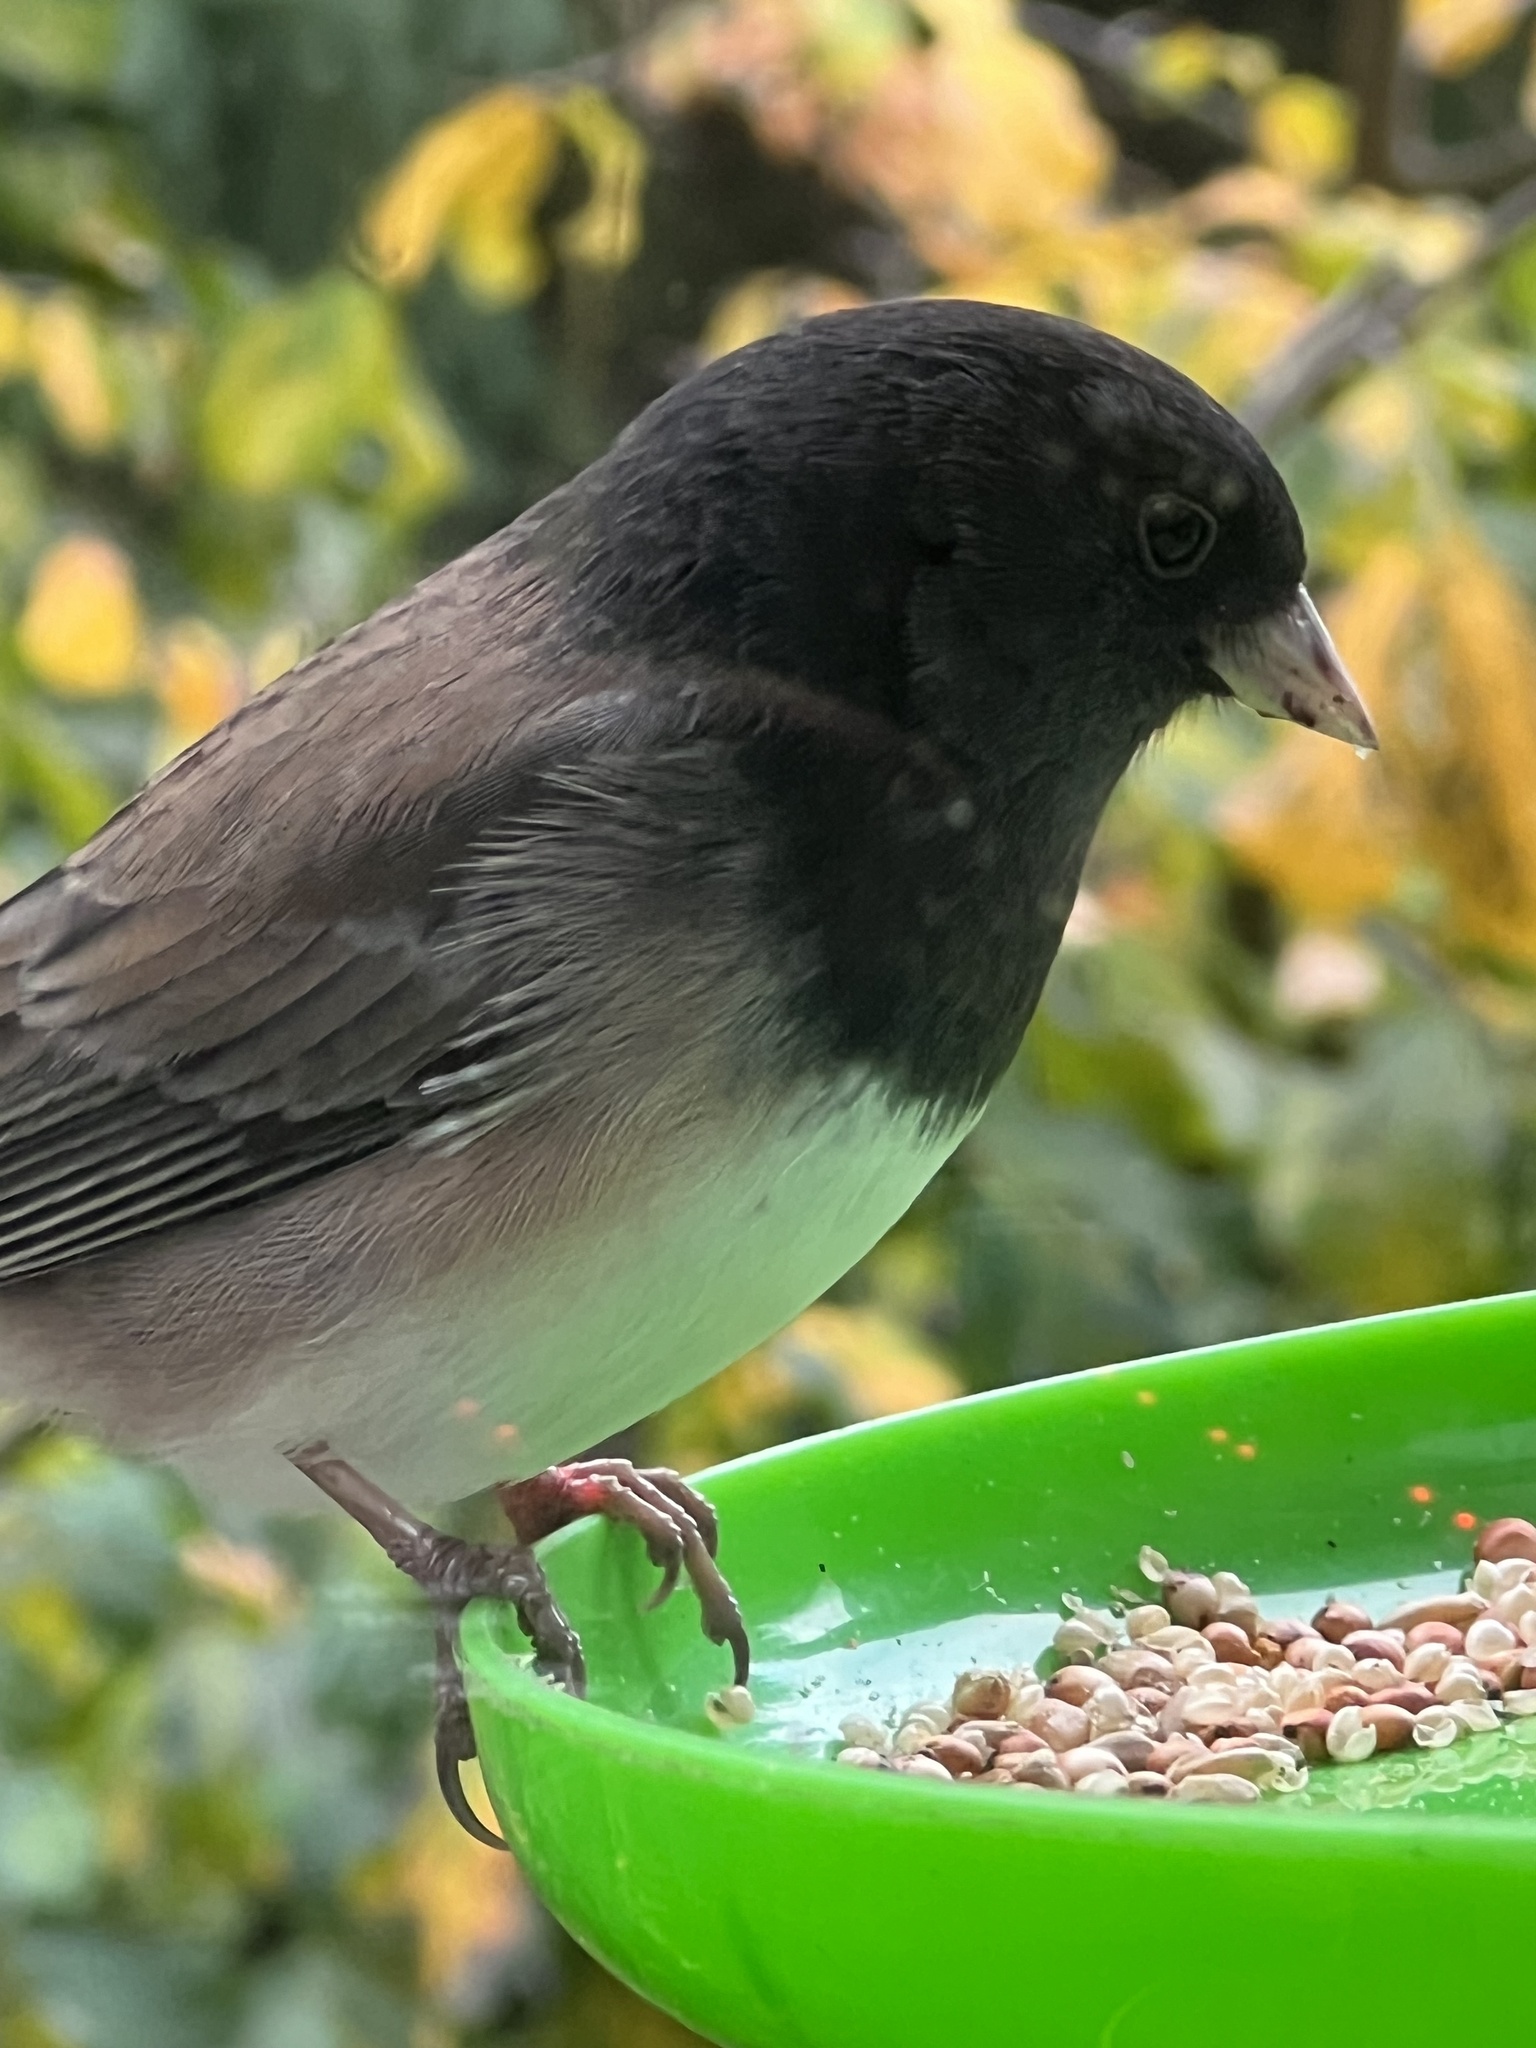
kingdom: Animalia
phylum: Chordata
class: Aves
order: Passeriformes
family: Passerellidae
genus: Junco
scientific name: Junco hyemalis
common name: Dark-eyed junco
